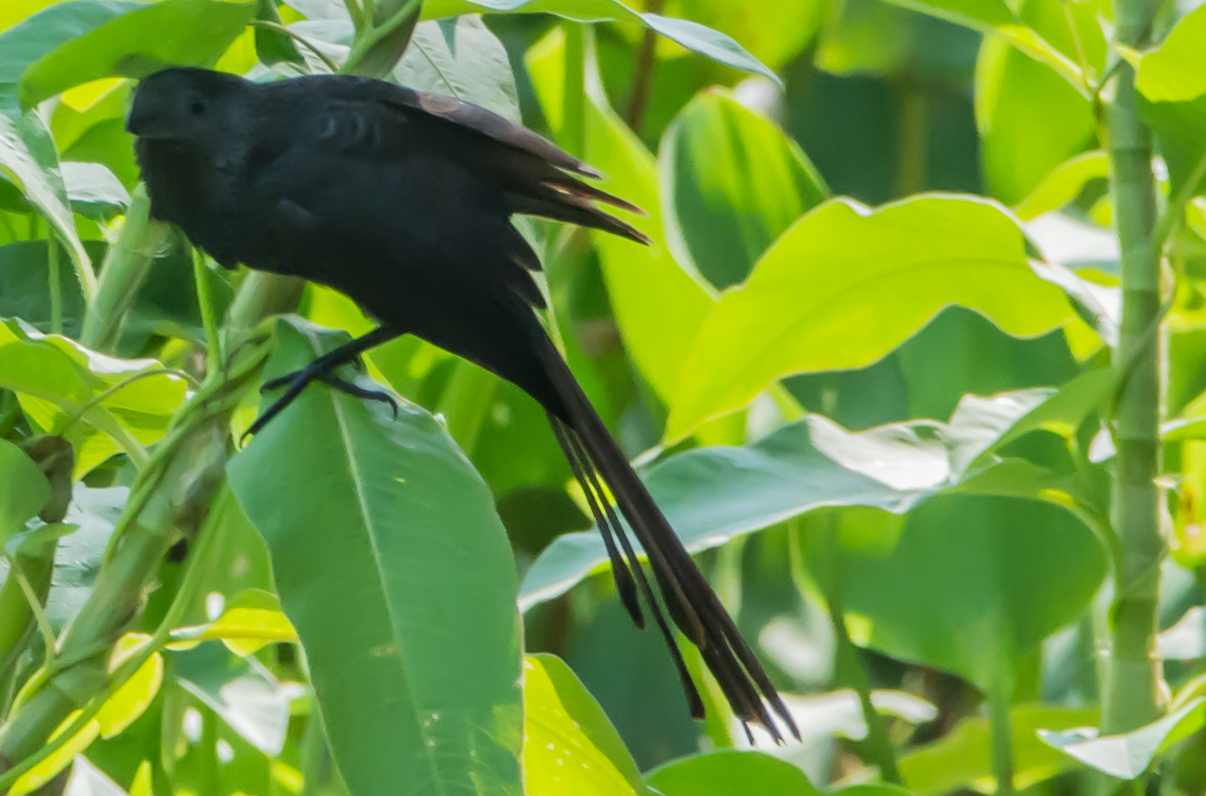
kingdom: Animalia
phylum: Chordata
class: Aves
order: Cuculiformes
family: Cuculidae
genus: Crotophaga
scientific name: Crotophaga ani
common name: Smooth-billed ani
